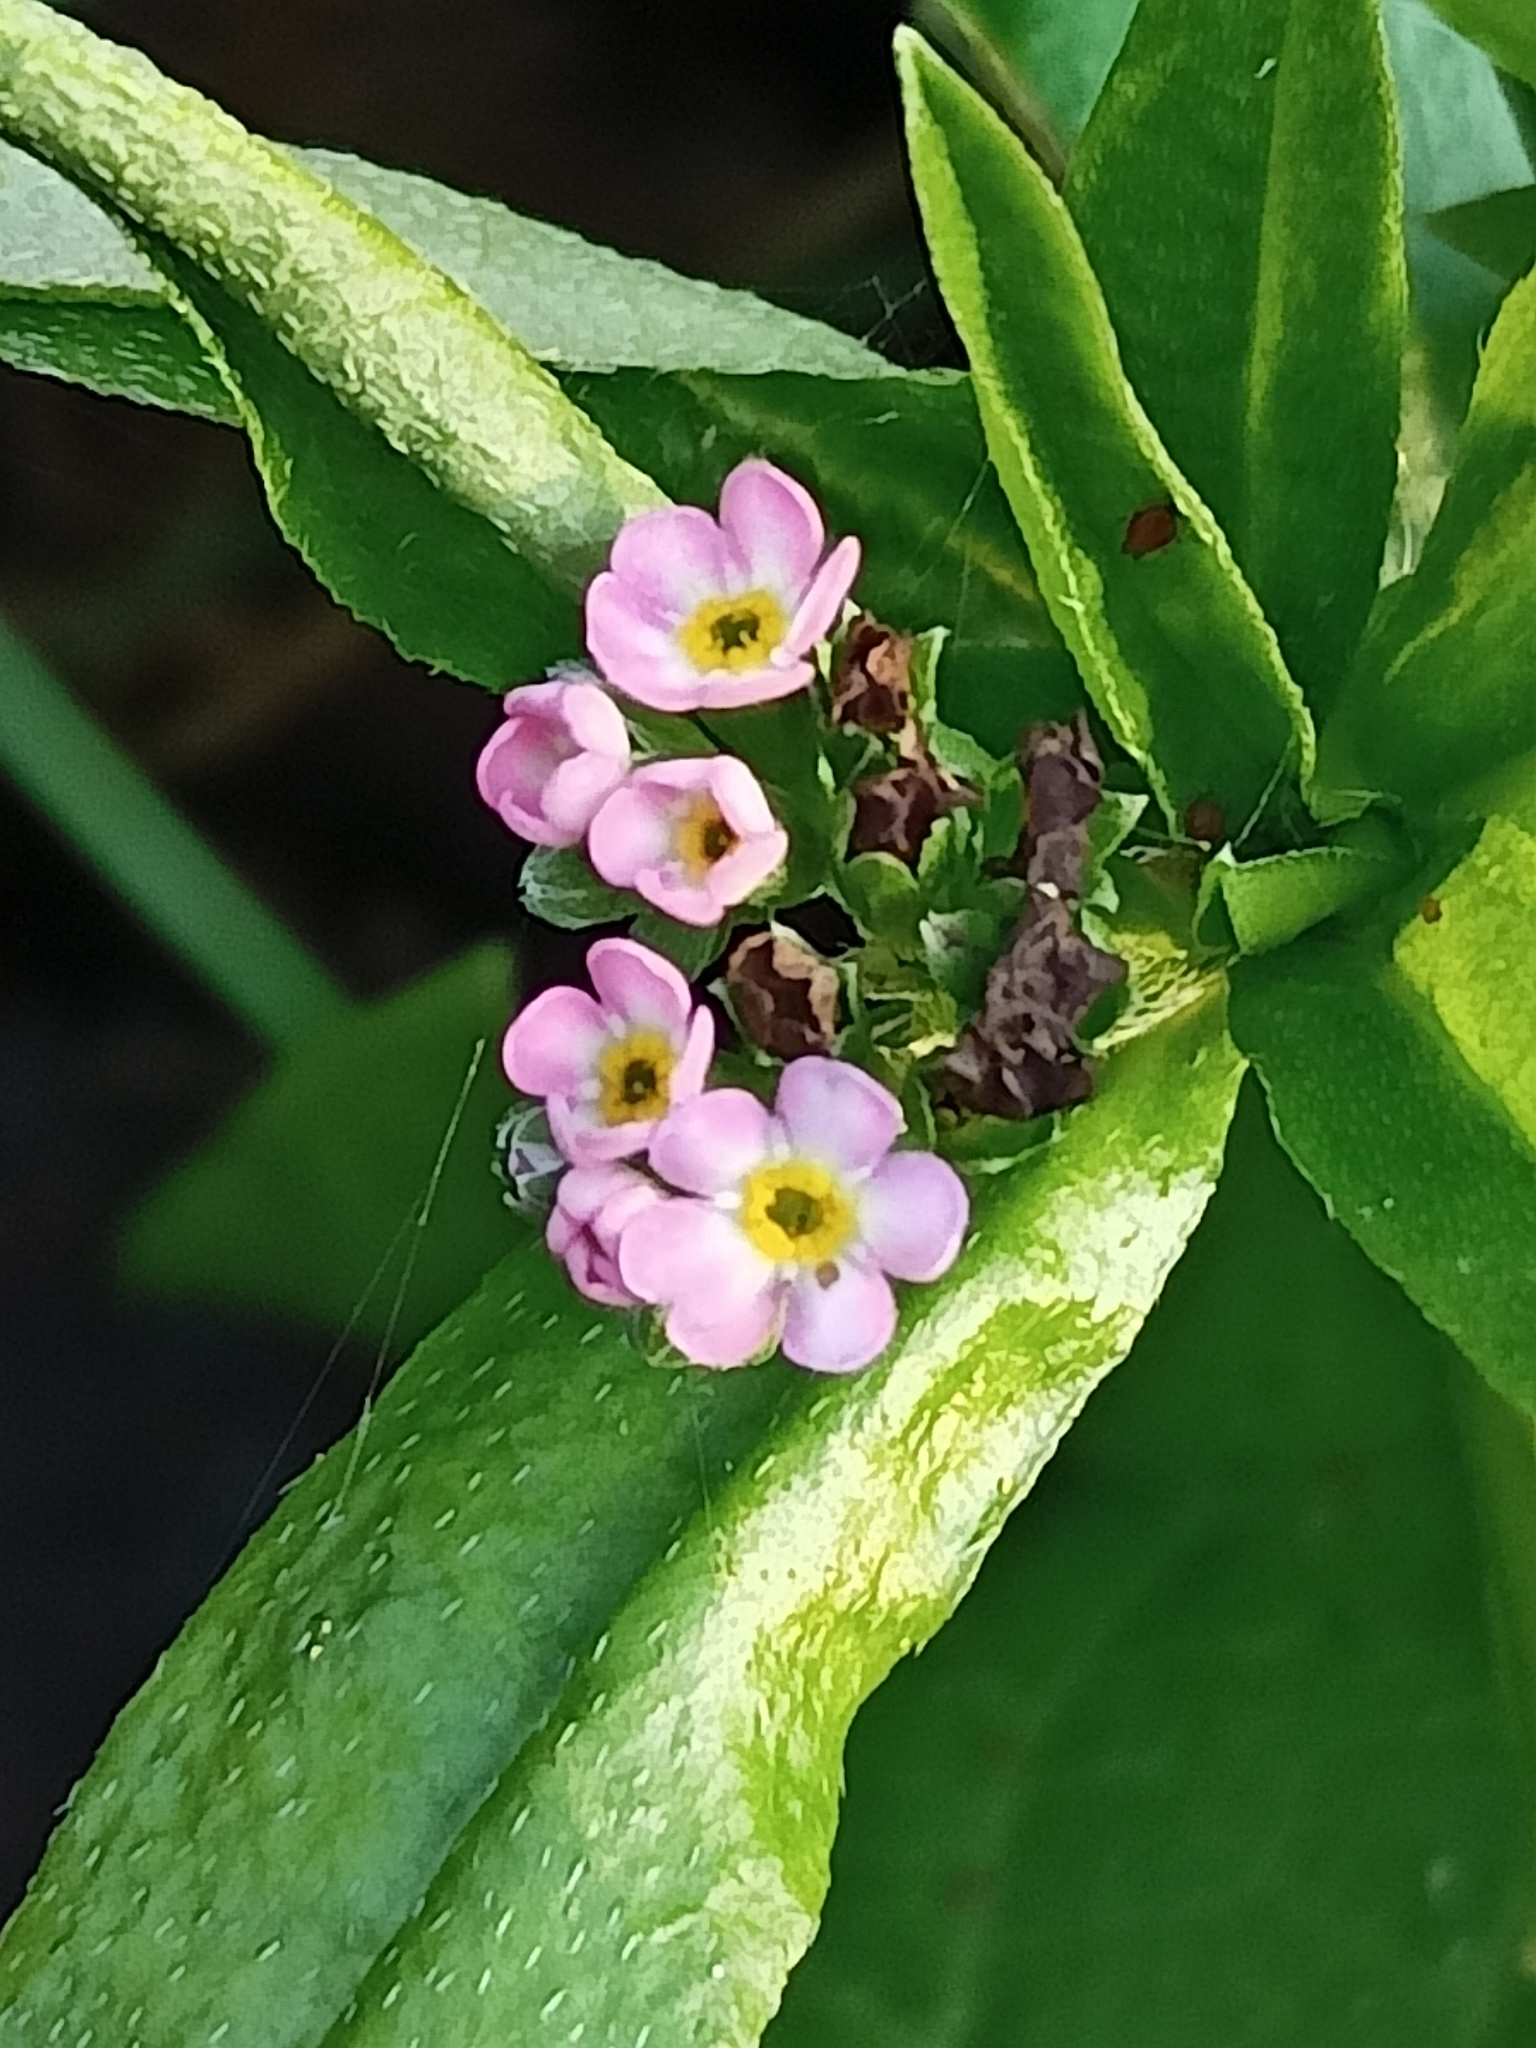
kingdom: Plantae
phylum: Tracheophyta
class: Magnoliopsida
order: Boraginales
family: Boraginaceae
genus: Myosotis
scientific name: Myosotis scorpioides
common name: Water forget-me-not
